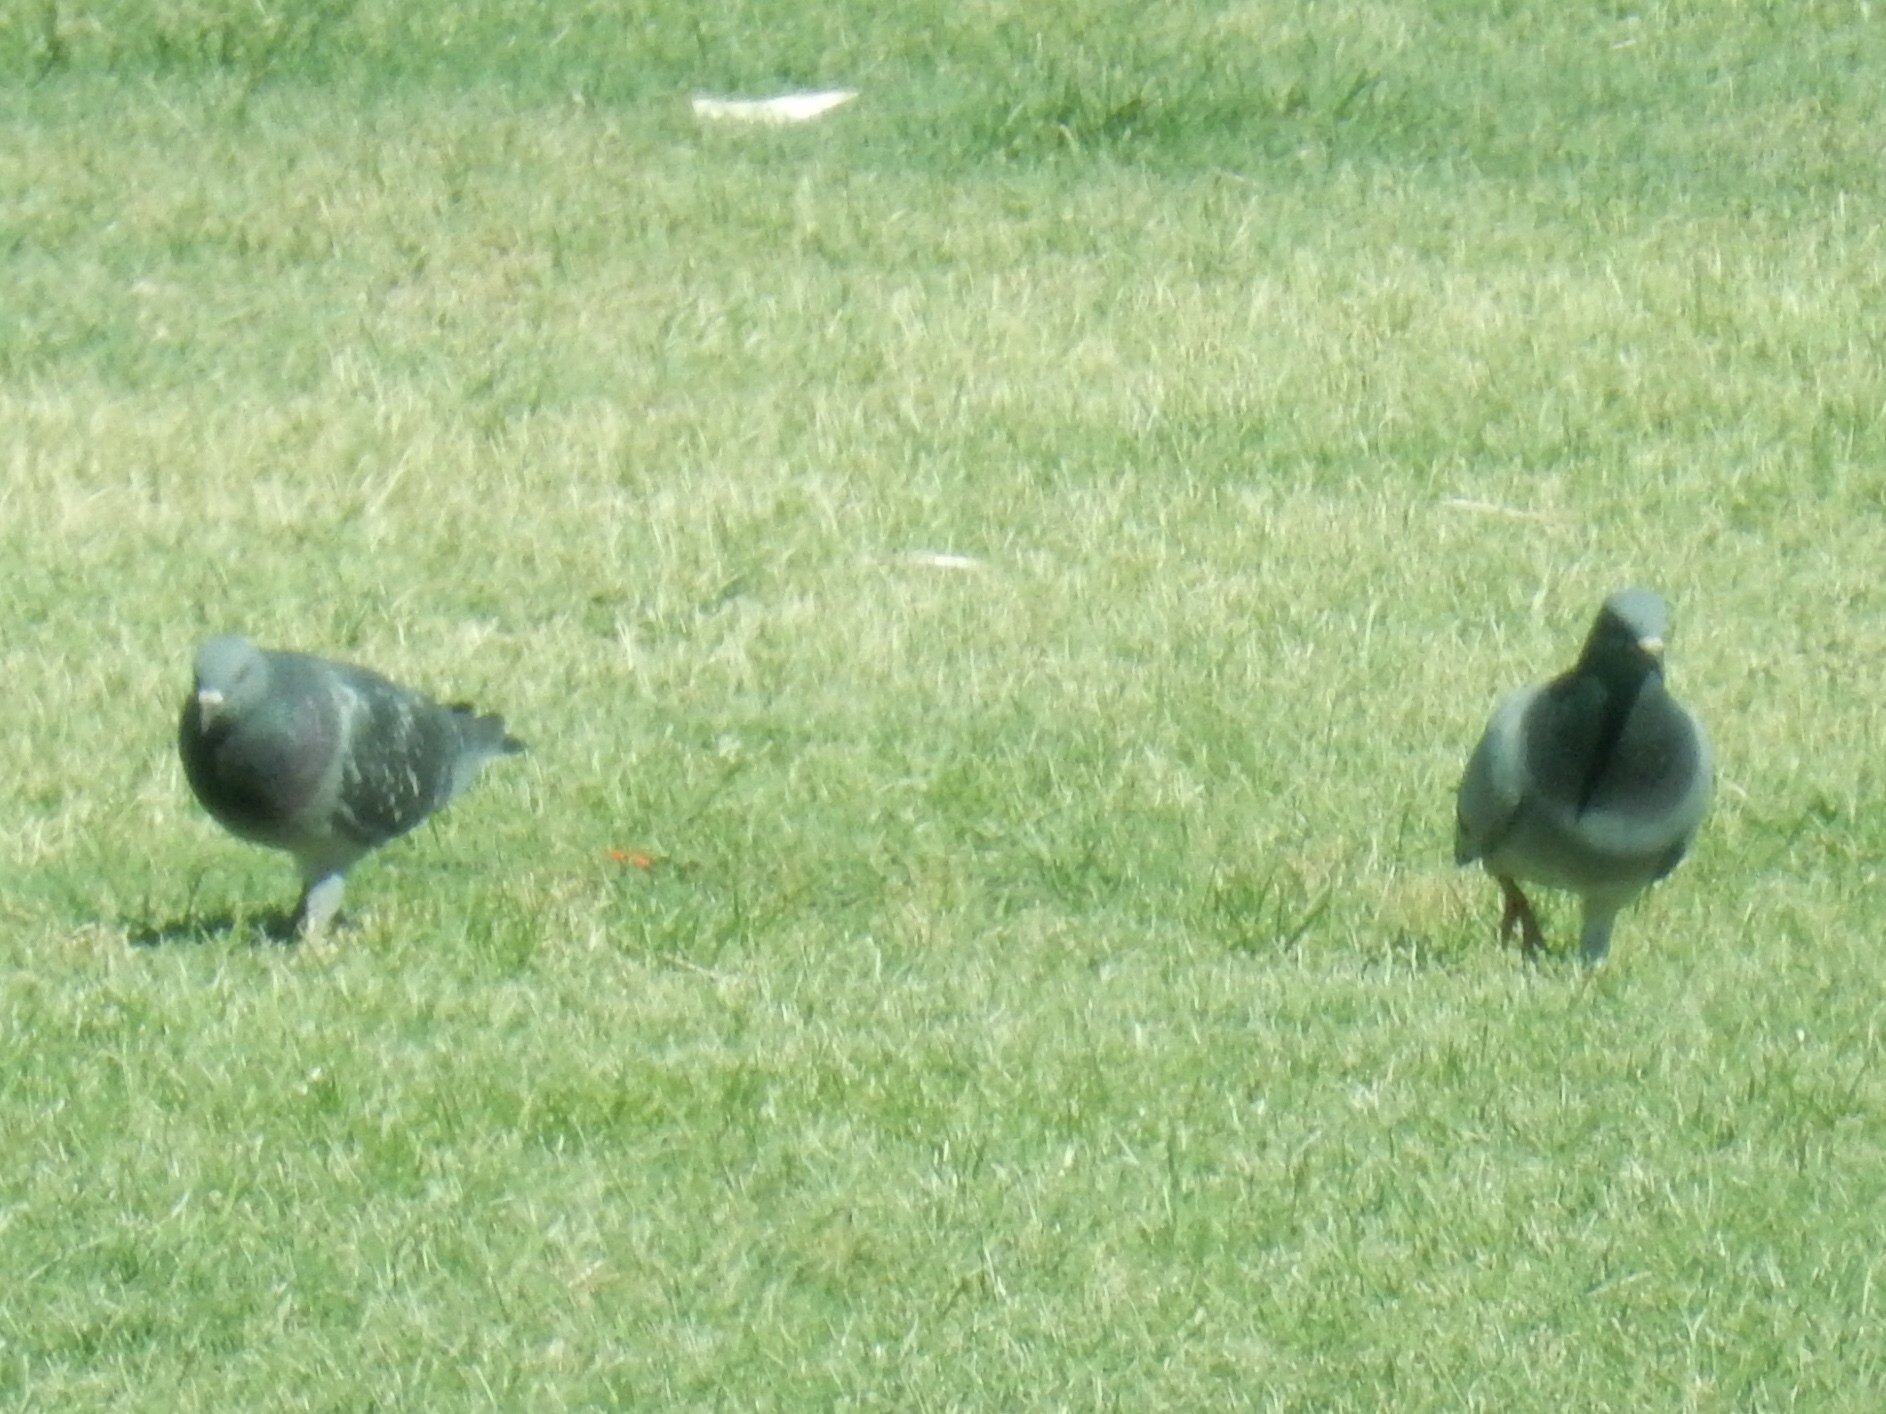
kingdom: Animalia
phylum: Chordata
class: Aves
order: Columbiformes
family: Columbidae
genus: Columba
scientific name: Columba livia
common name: Rock pigeon
